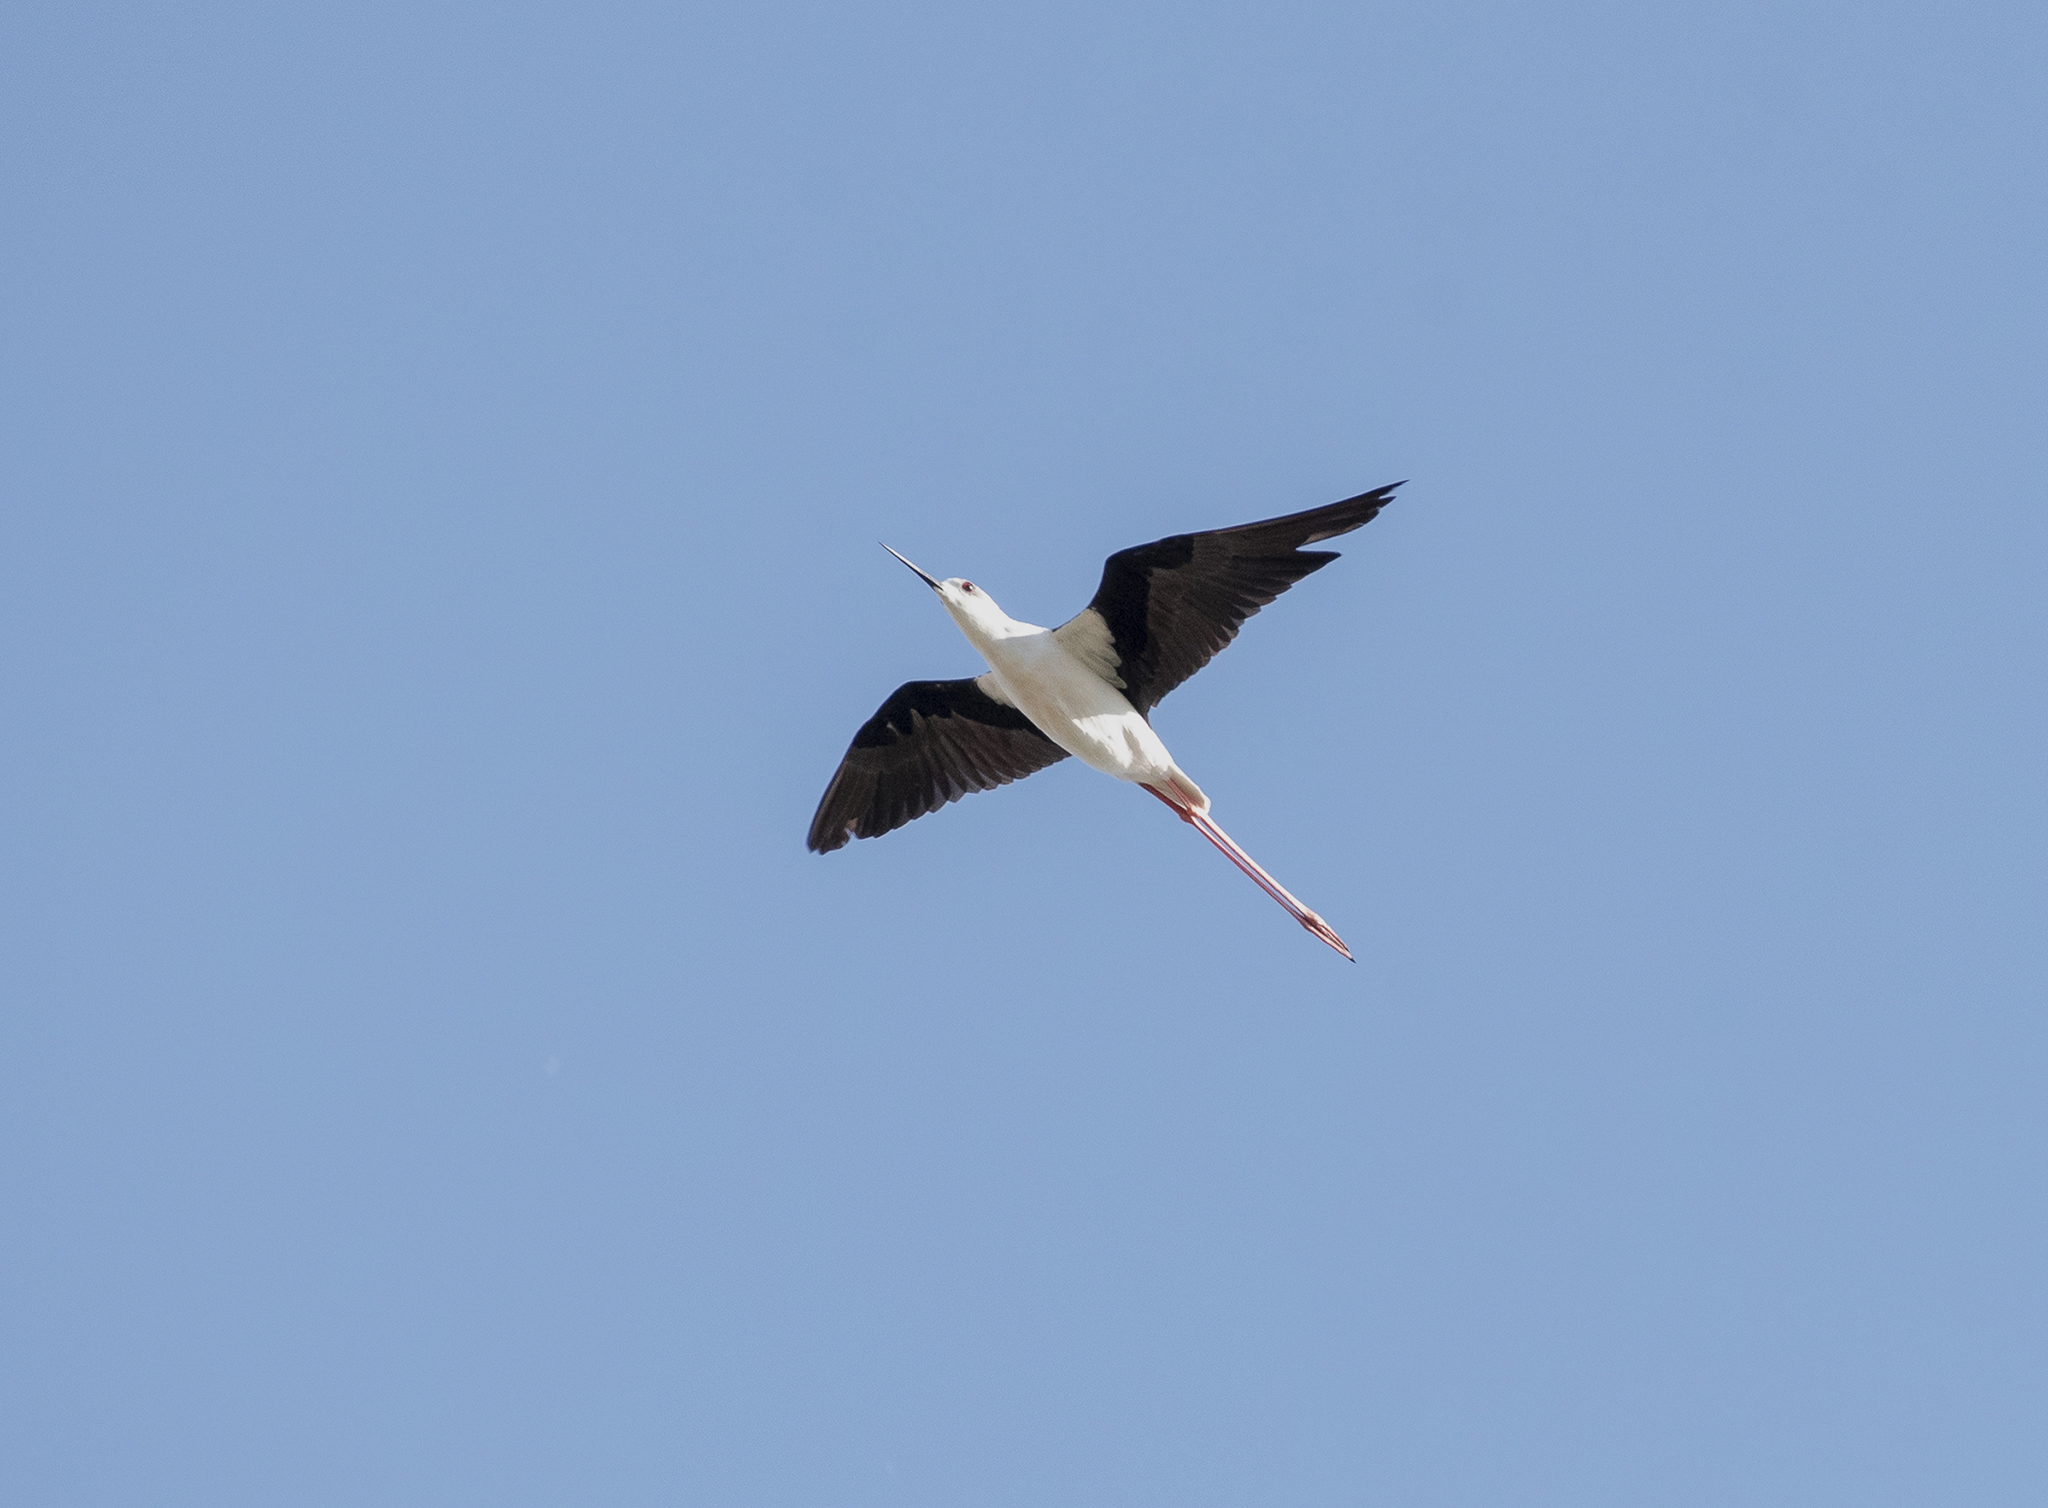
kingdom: Animalia
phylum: Chordata
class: Aves
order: Charadriiformes
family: Recurvirostridae
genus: Himantopus
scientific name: Himantopus himantopus
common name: Black-winged stilt
